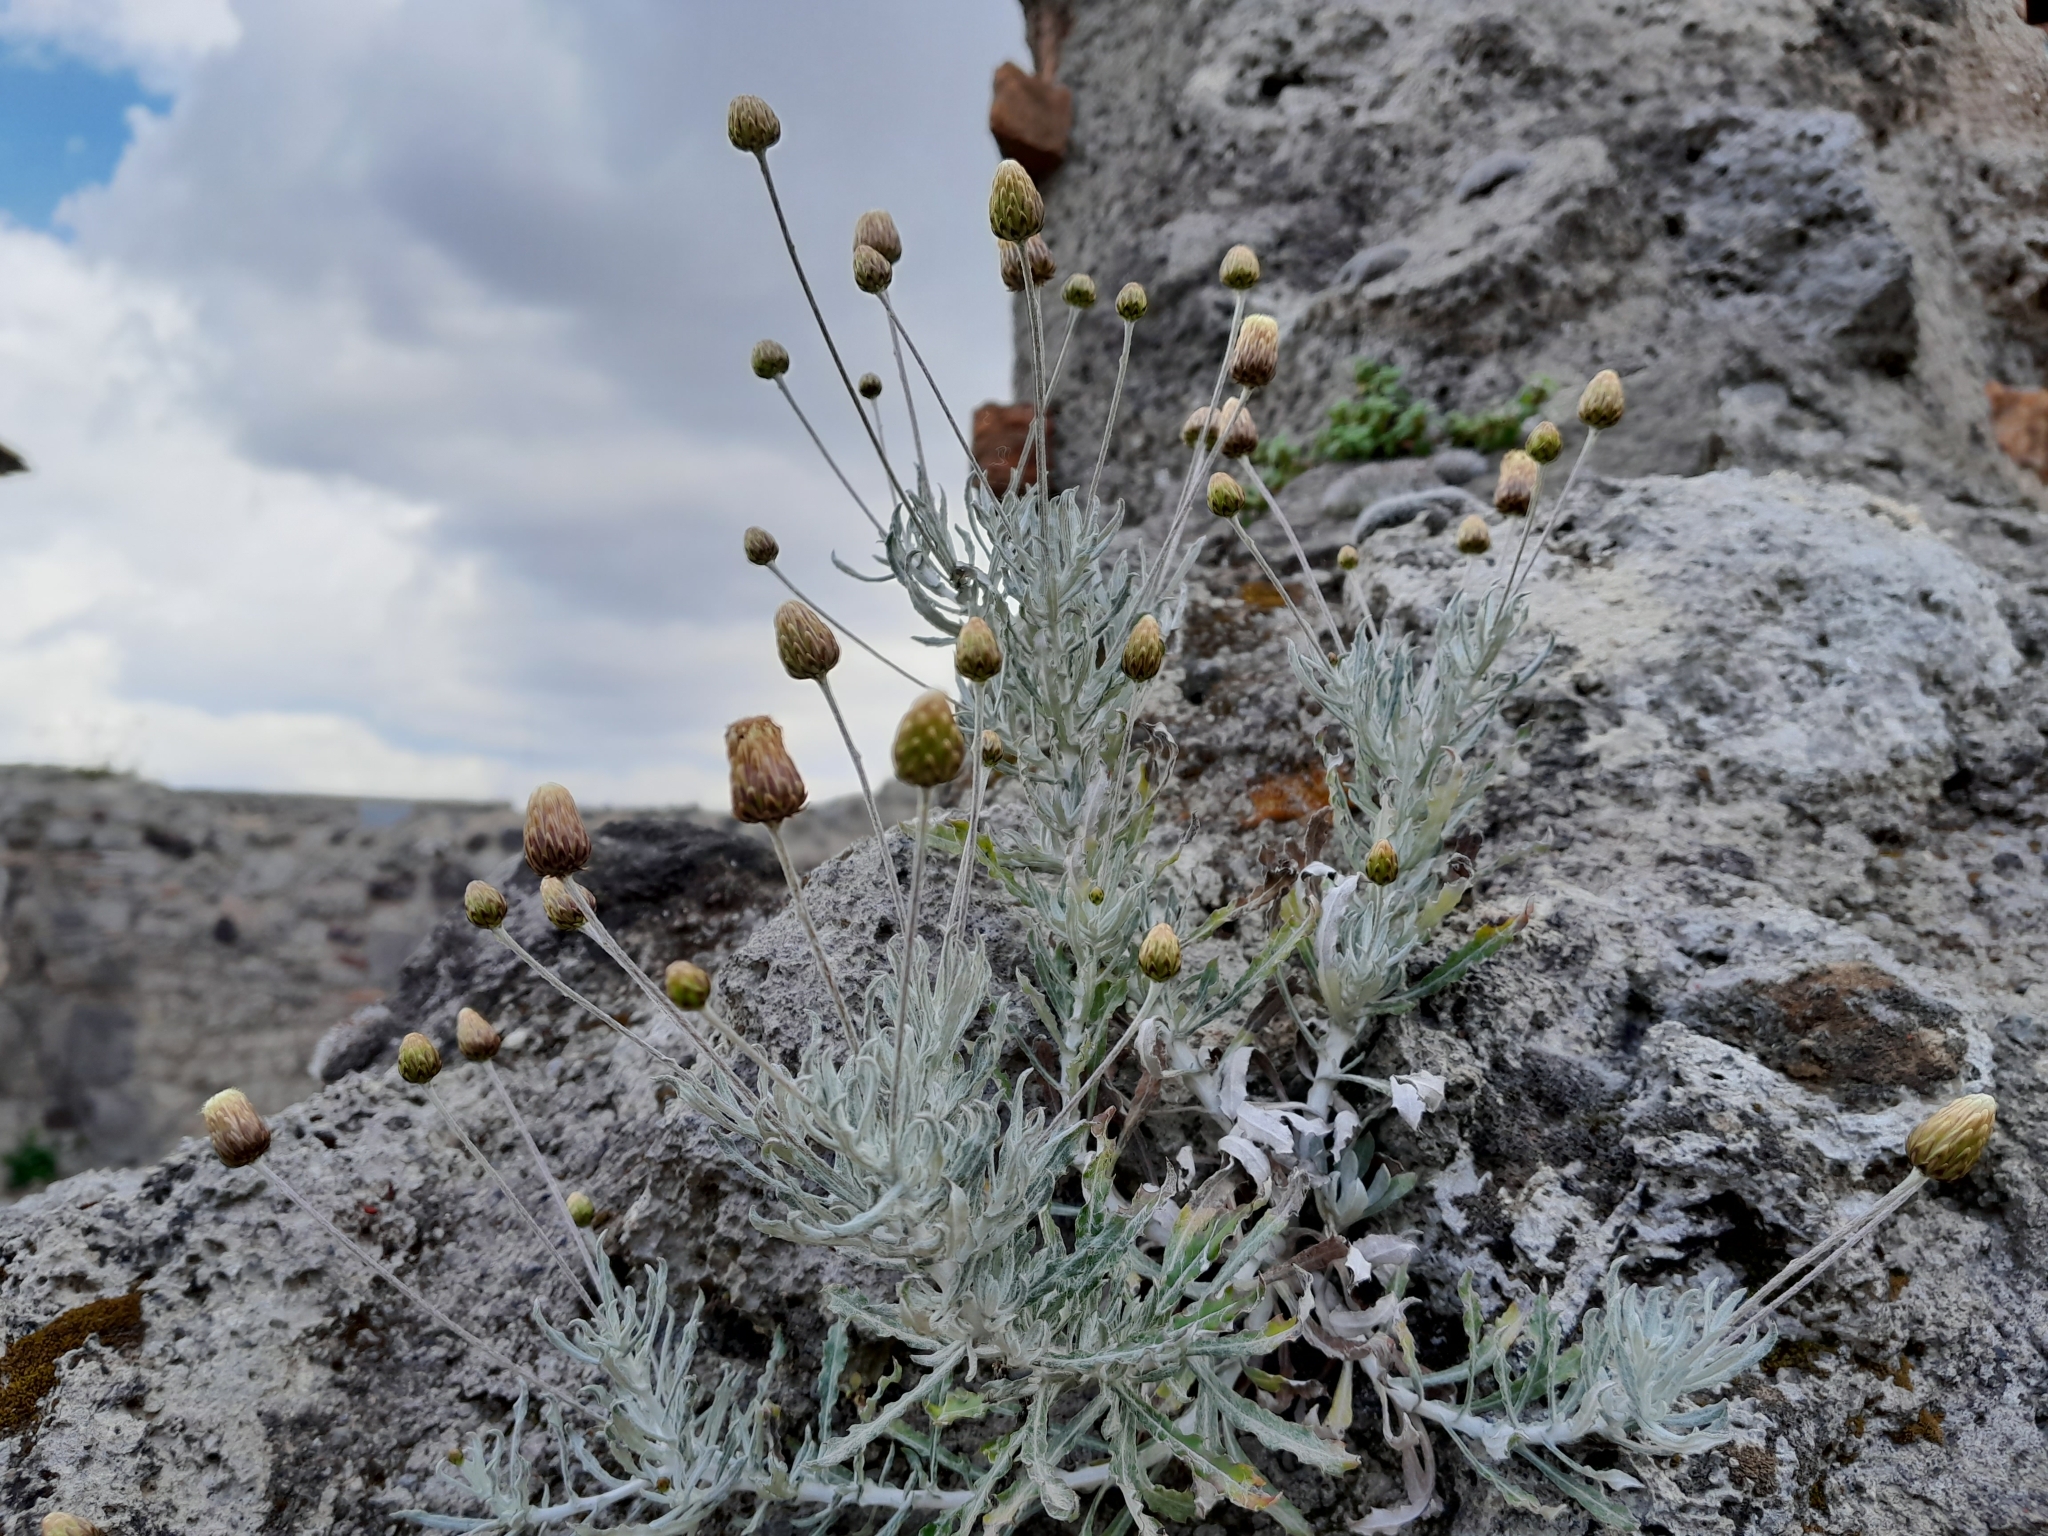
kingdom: Plantae
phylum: Tracheophyta
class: Magnoliopsida
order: Asterales
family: Asteraceae
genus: Phagnalon
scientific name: Phagnalon rupestre
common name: Rock phagnalon
